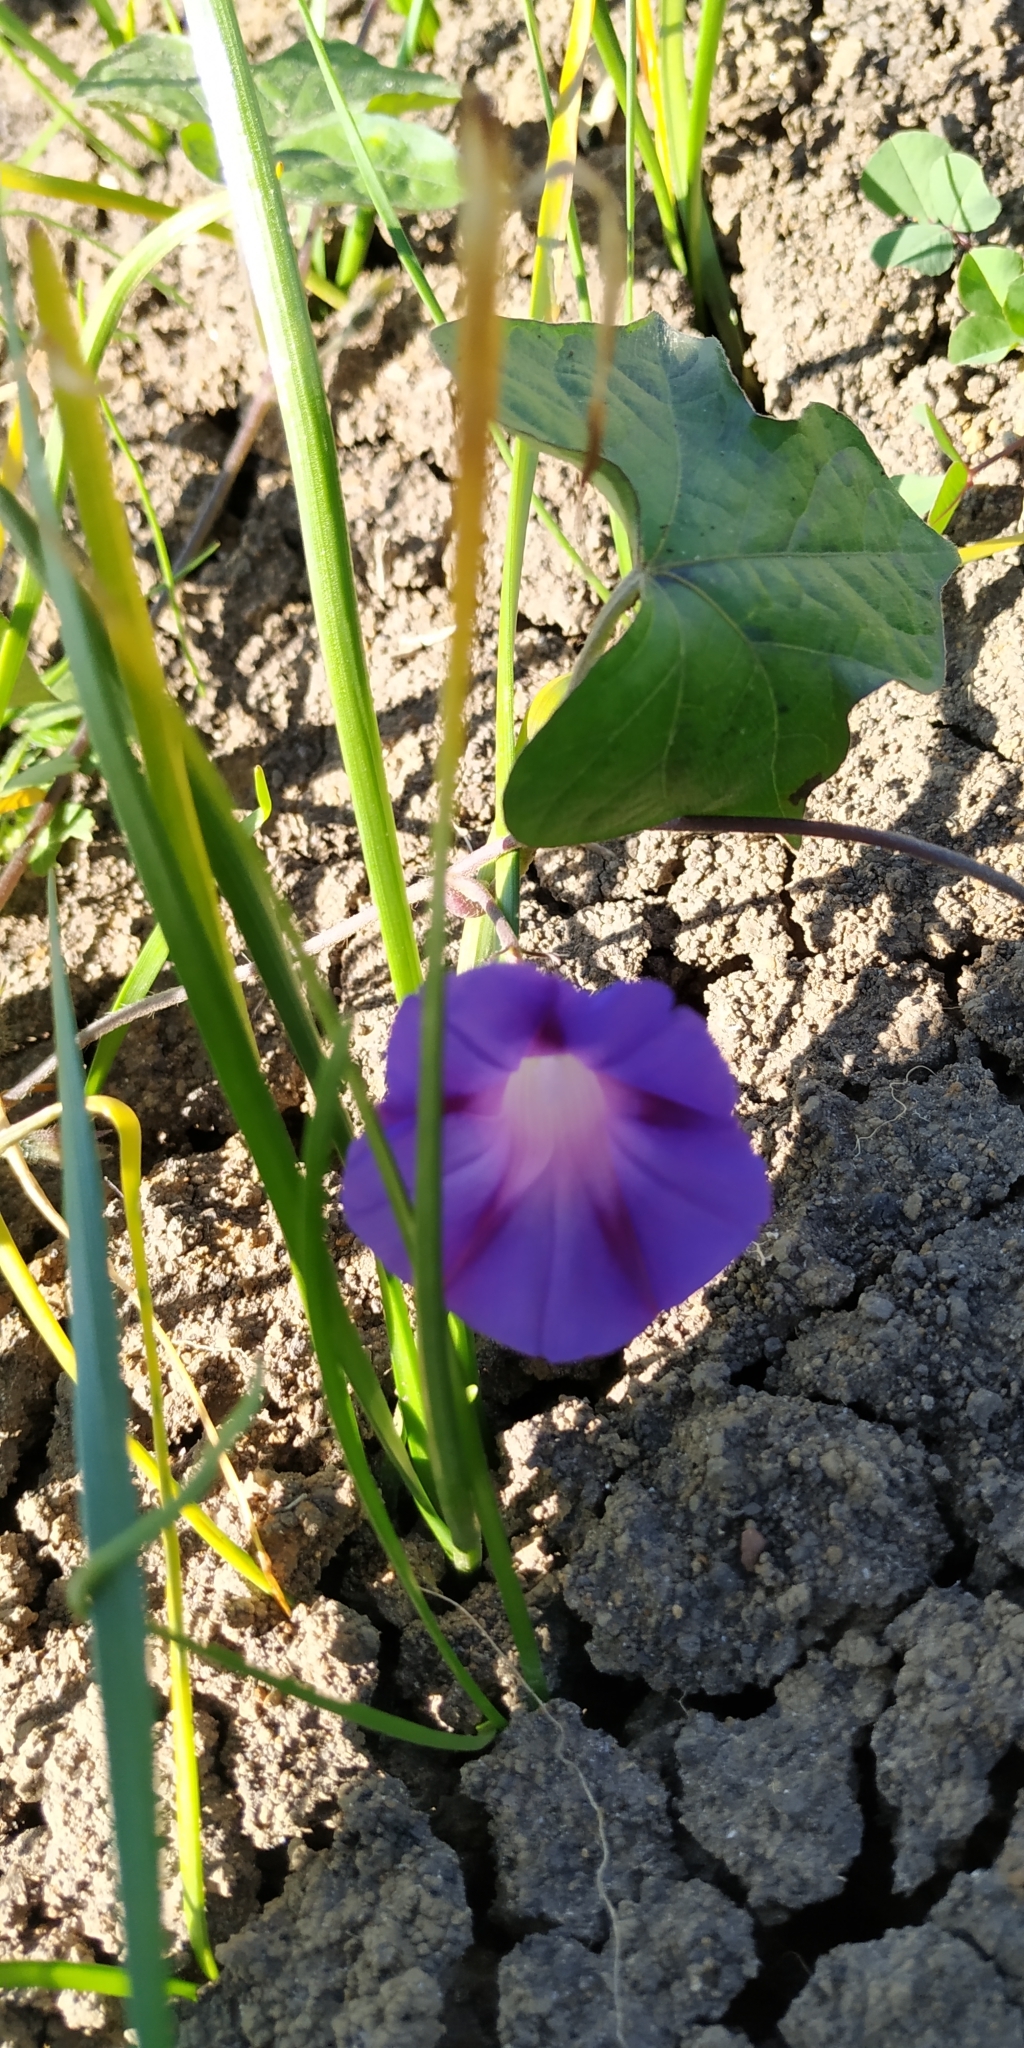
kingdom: Plantae
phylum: Tracheophyta
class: Magnoliopsida
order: Solanales
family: Convolvulaceae
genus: Ipomoea
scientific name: Ipomoea purpurea
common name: Common morning-glory
